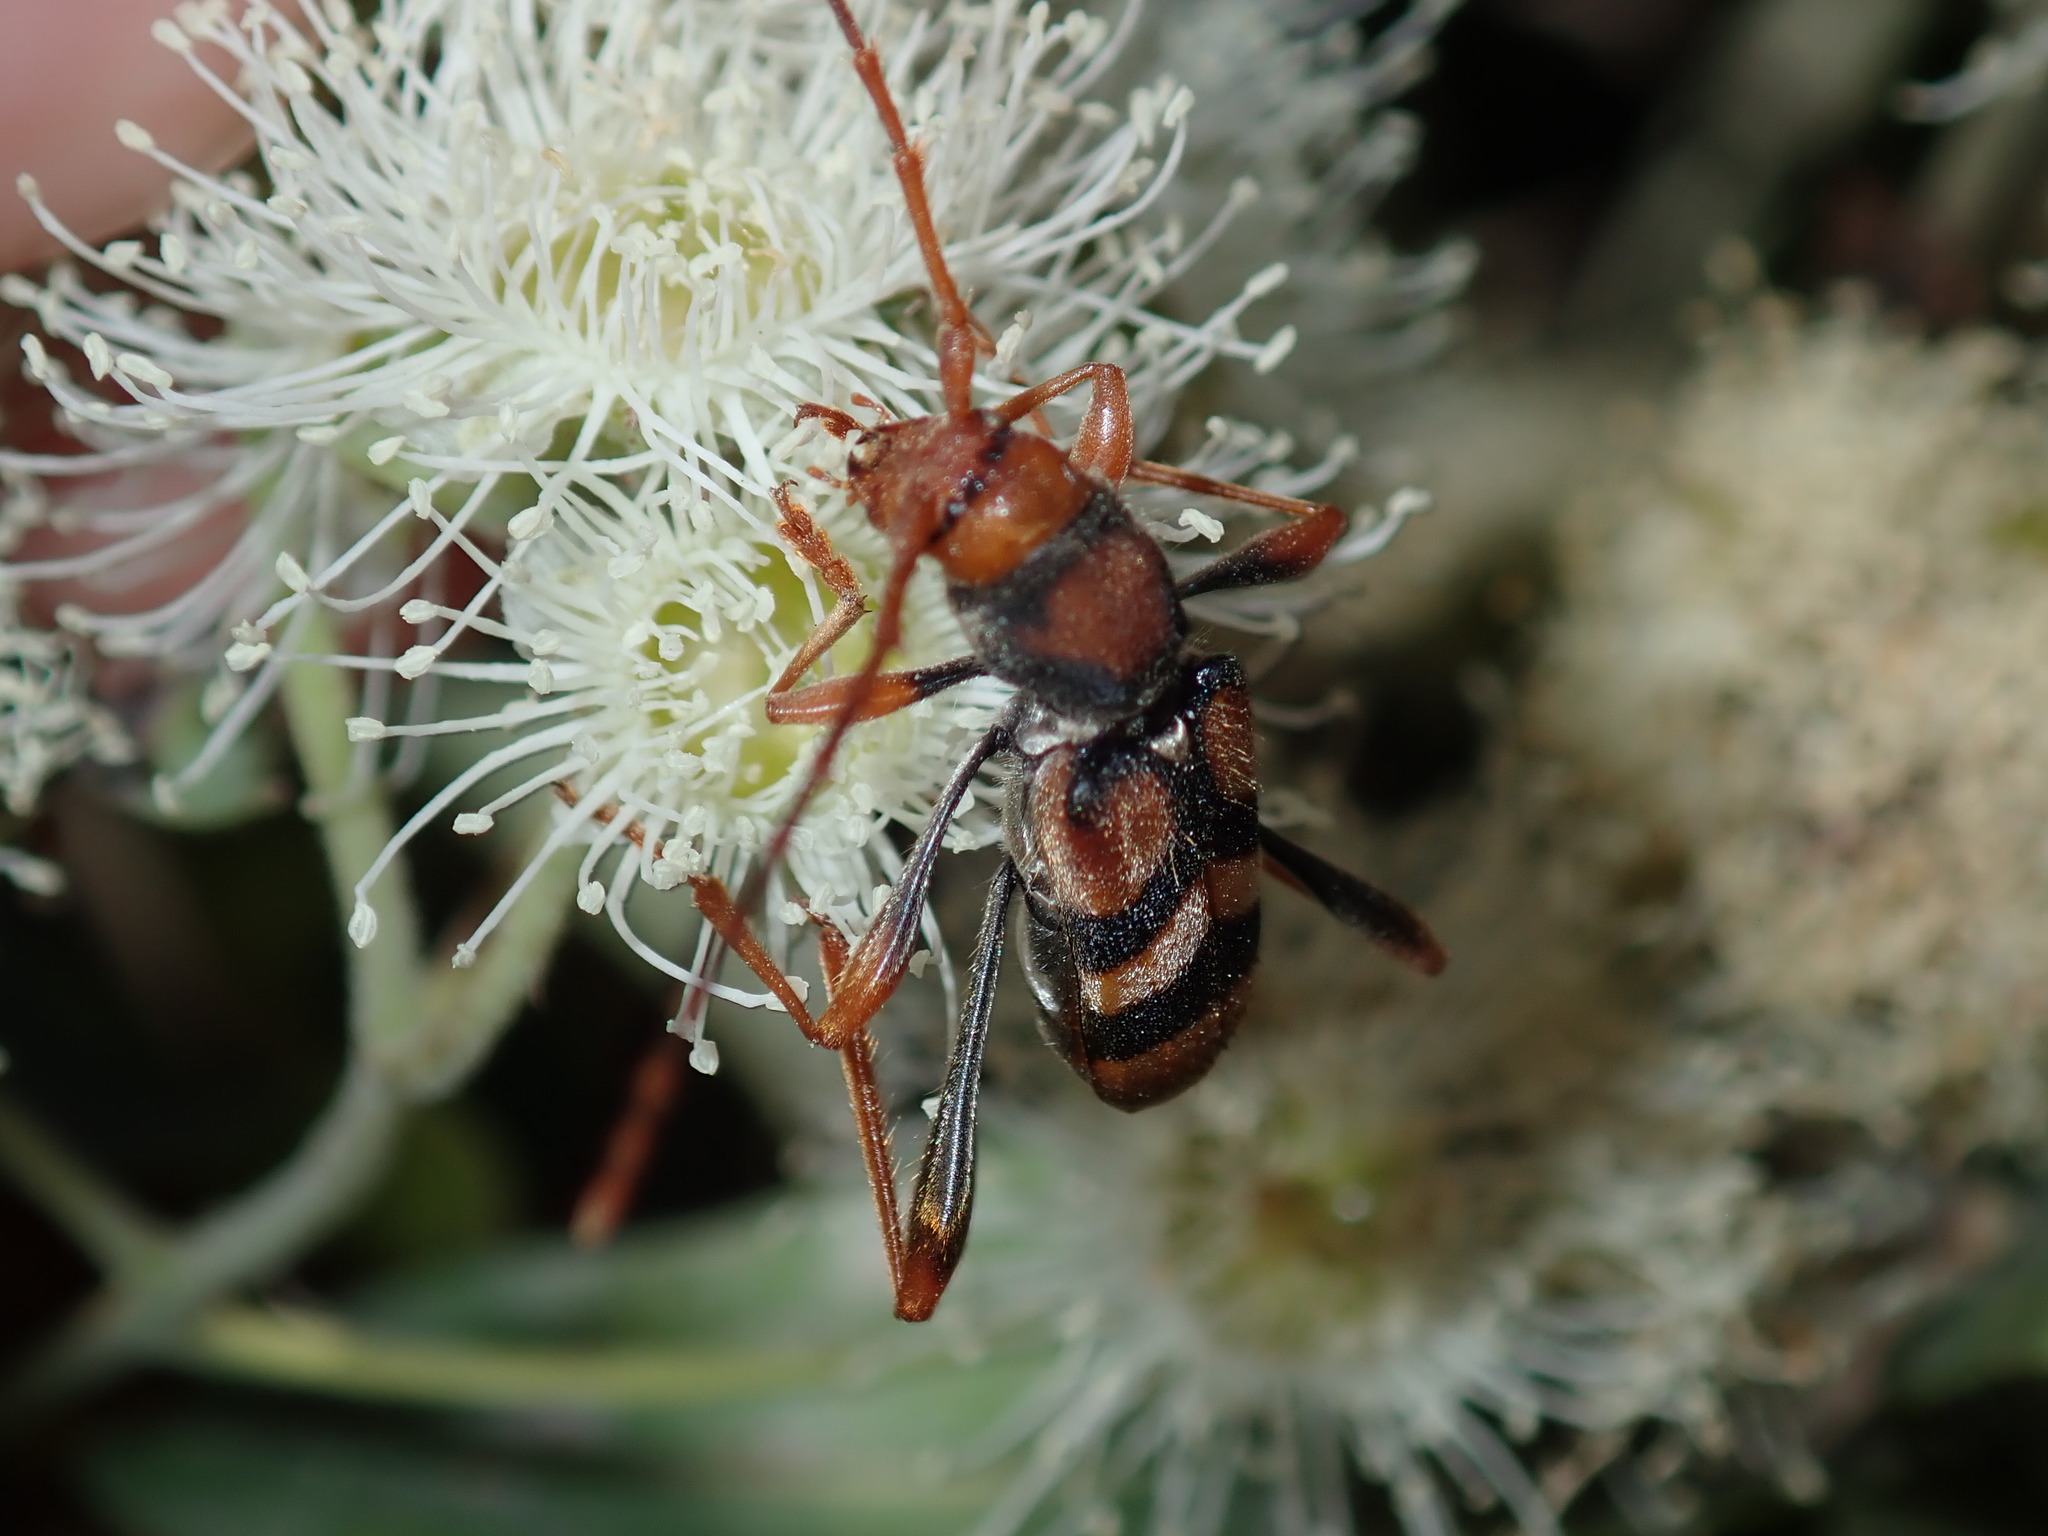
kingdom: Animalia
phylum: Arthropoda
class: Insecta
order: Coleoptera
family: Cerambycidae
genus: Aridaeus
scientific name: Aridaeus thoracicus
